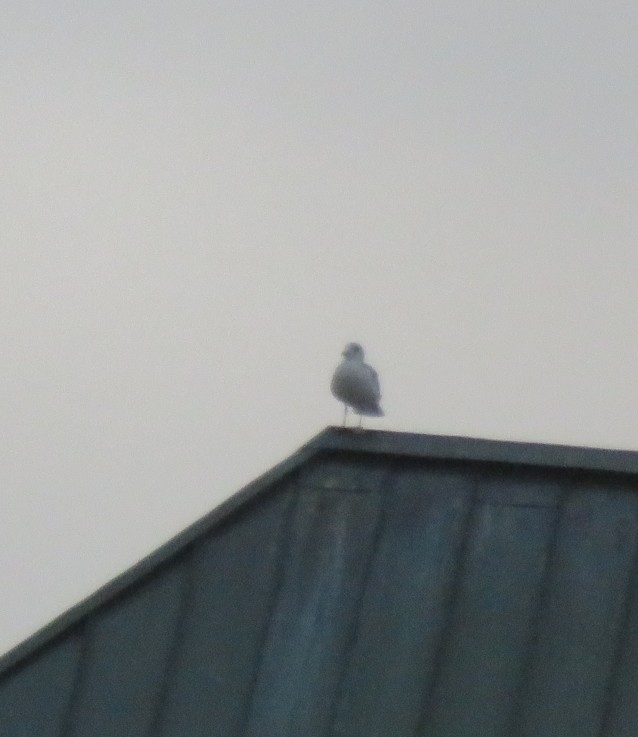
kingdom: Animalia
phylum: Chordata
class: Aves
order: Charadriiformes
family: Laridae
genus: Larus
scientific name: Larus
